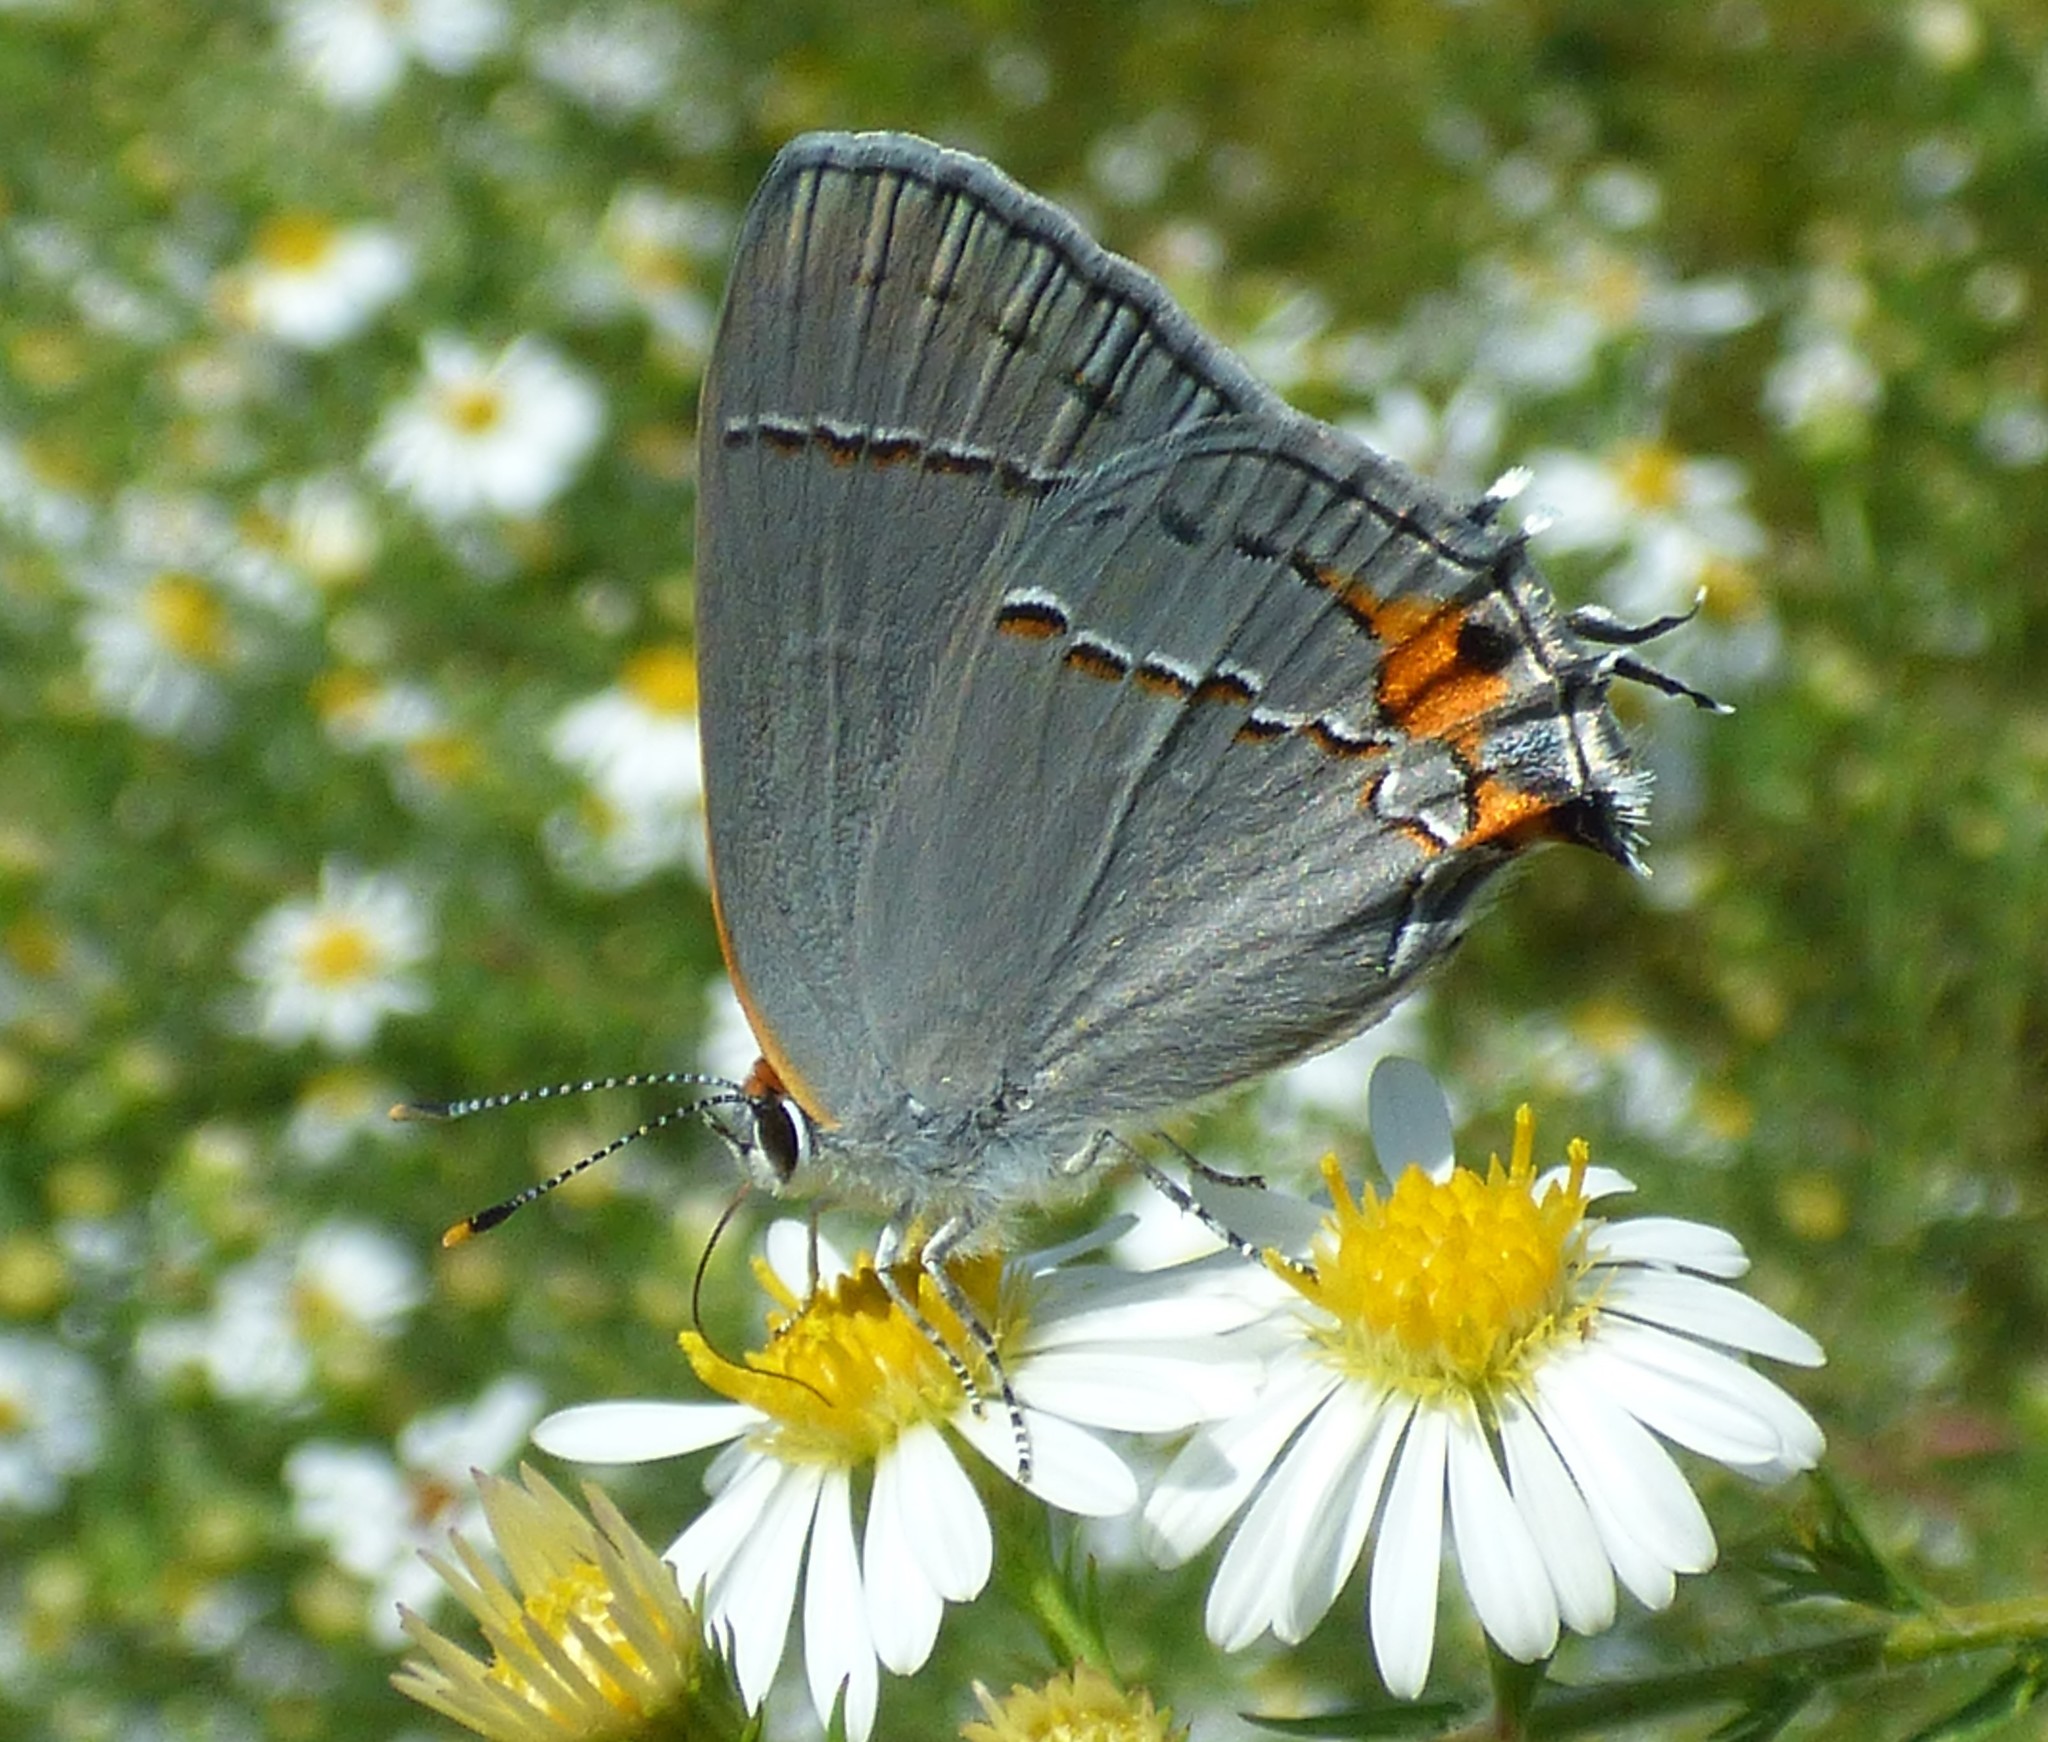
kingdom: Animalia
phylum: Arthropoda
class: Insecta
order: Lepidoptera
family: Lycaenidae
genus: Strymon
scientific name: Strymon melinus
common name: Gray hairstreak
